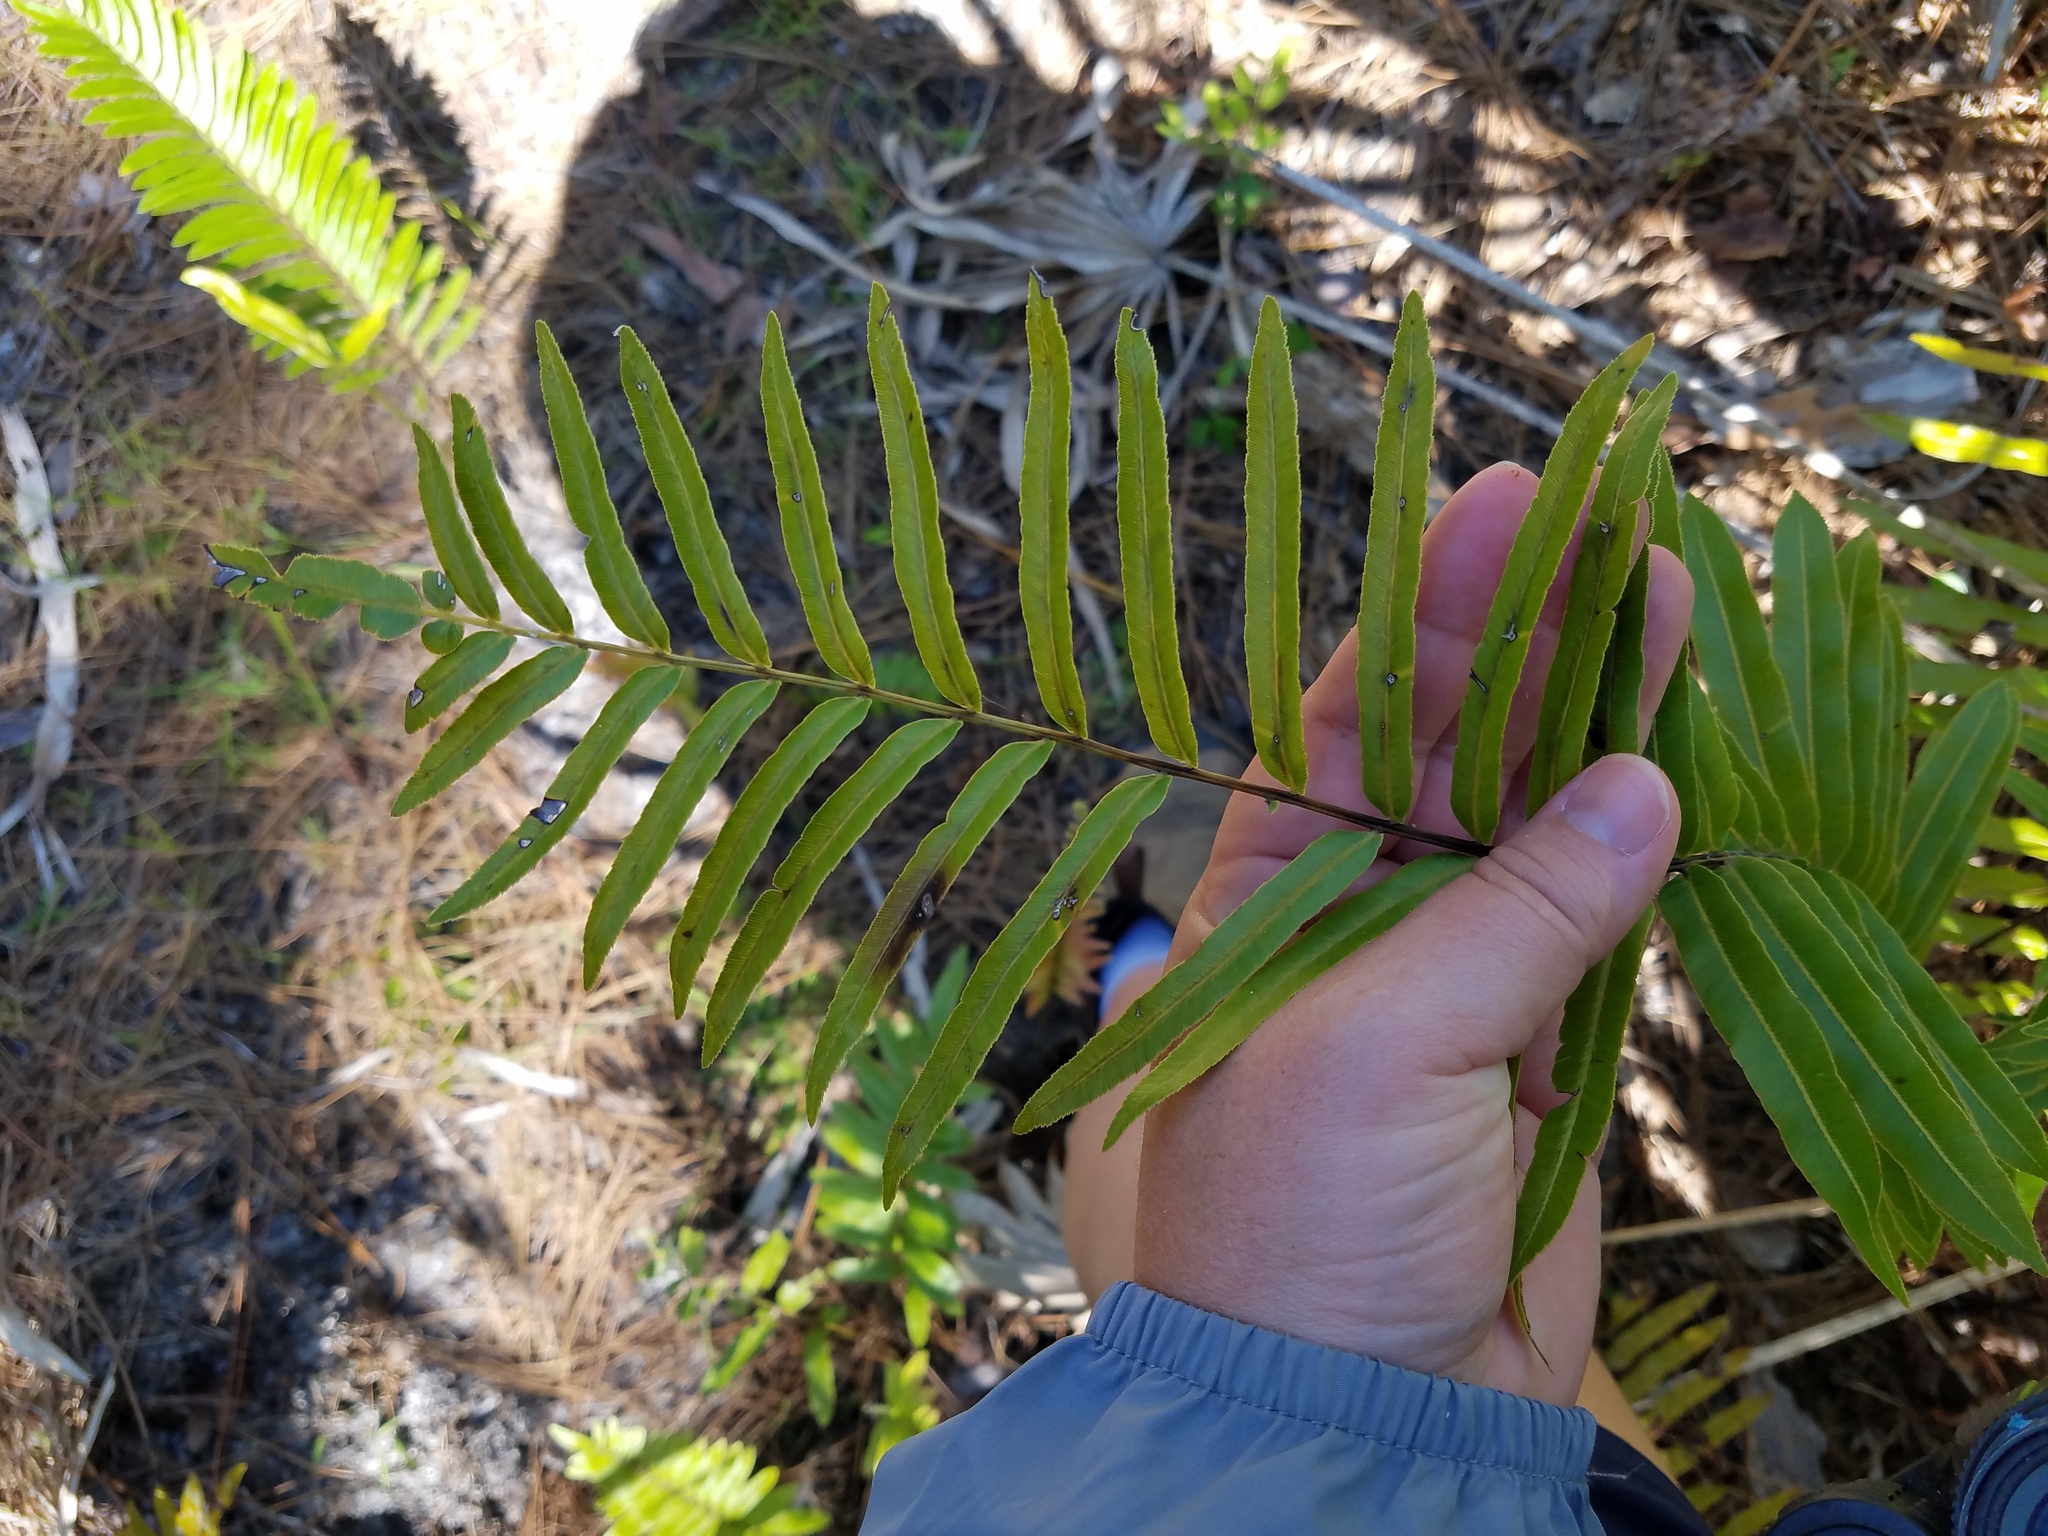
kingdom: Plantae
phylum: Tracheophyta
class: Polypodiopsida
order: Polypodiales
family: Blechnaceae
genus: Telmatoblechnum
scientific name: Telmatoblechnum serrulatum
